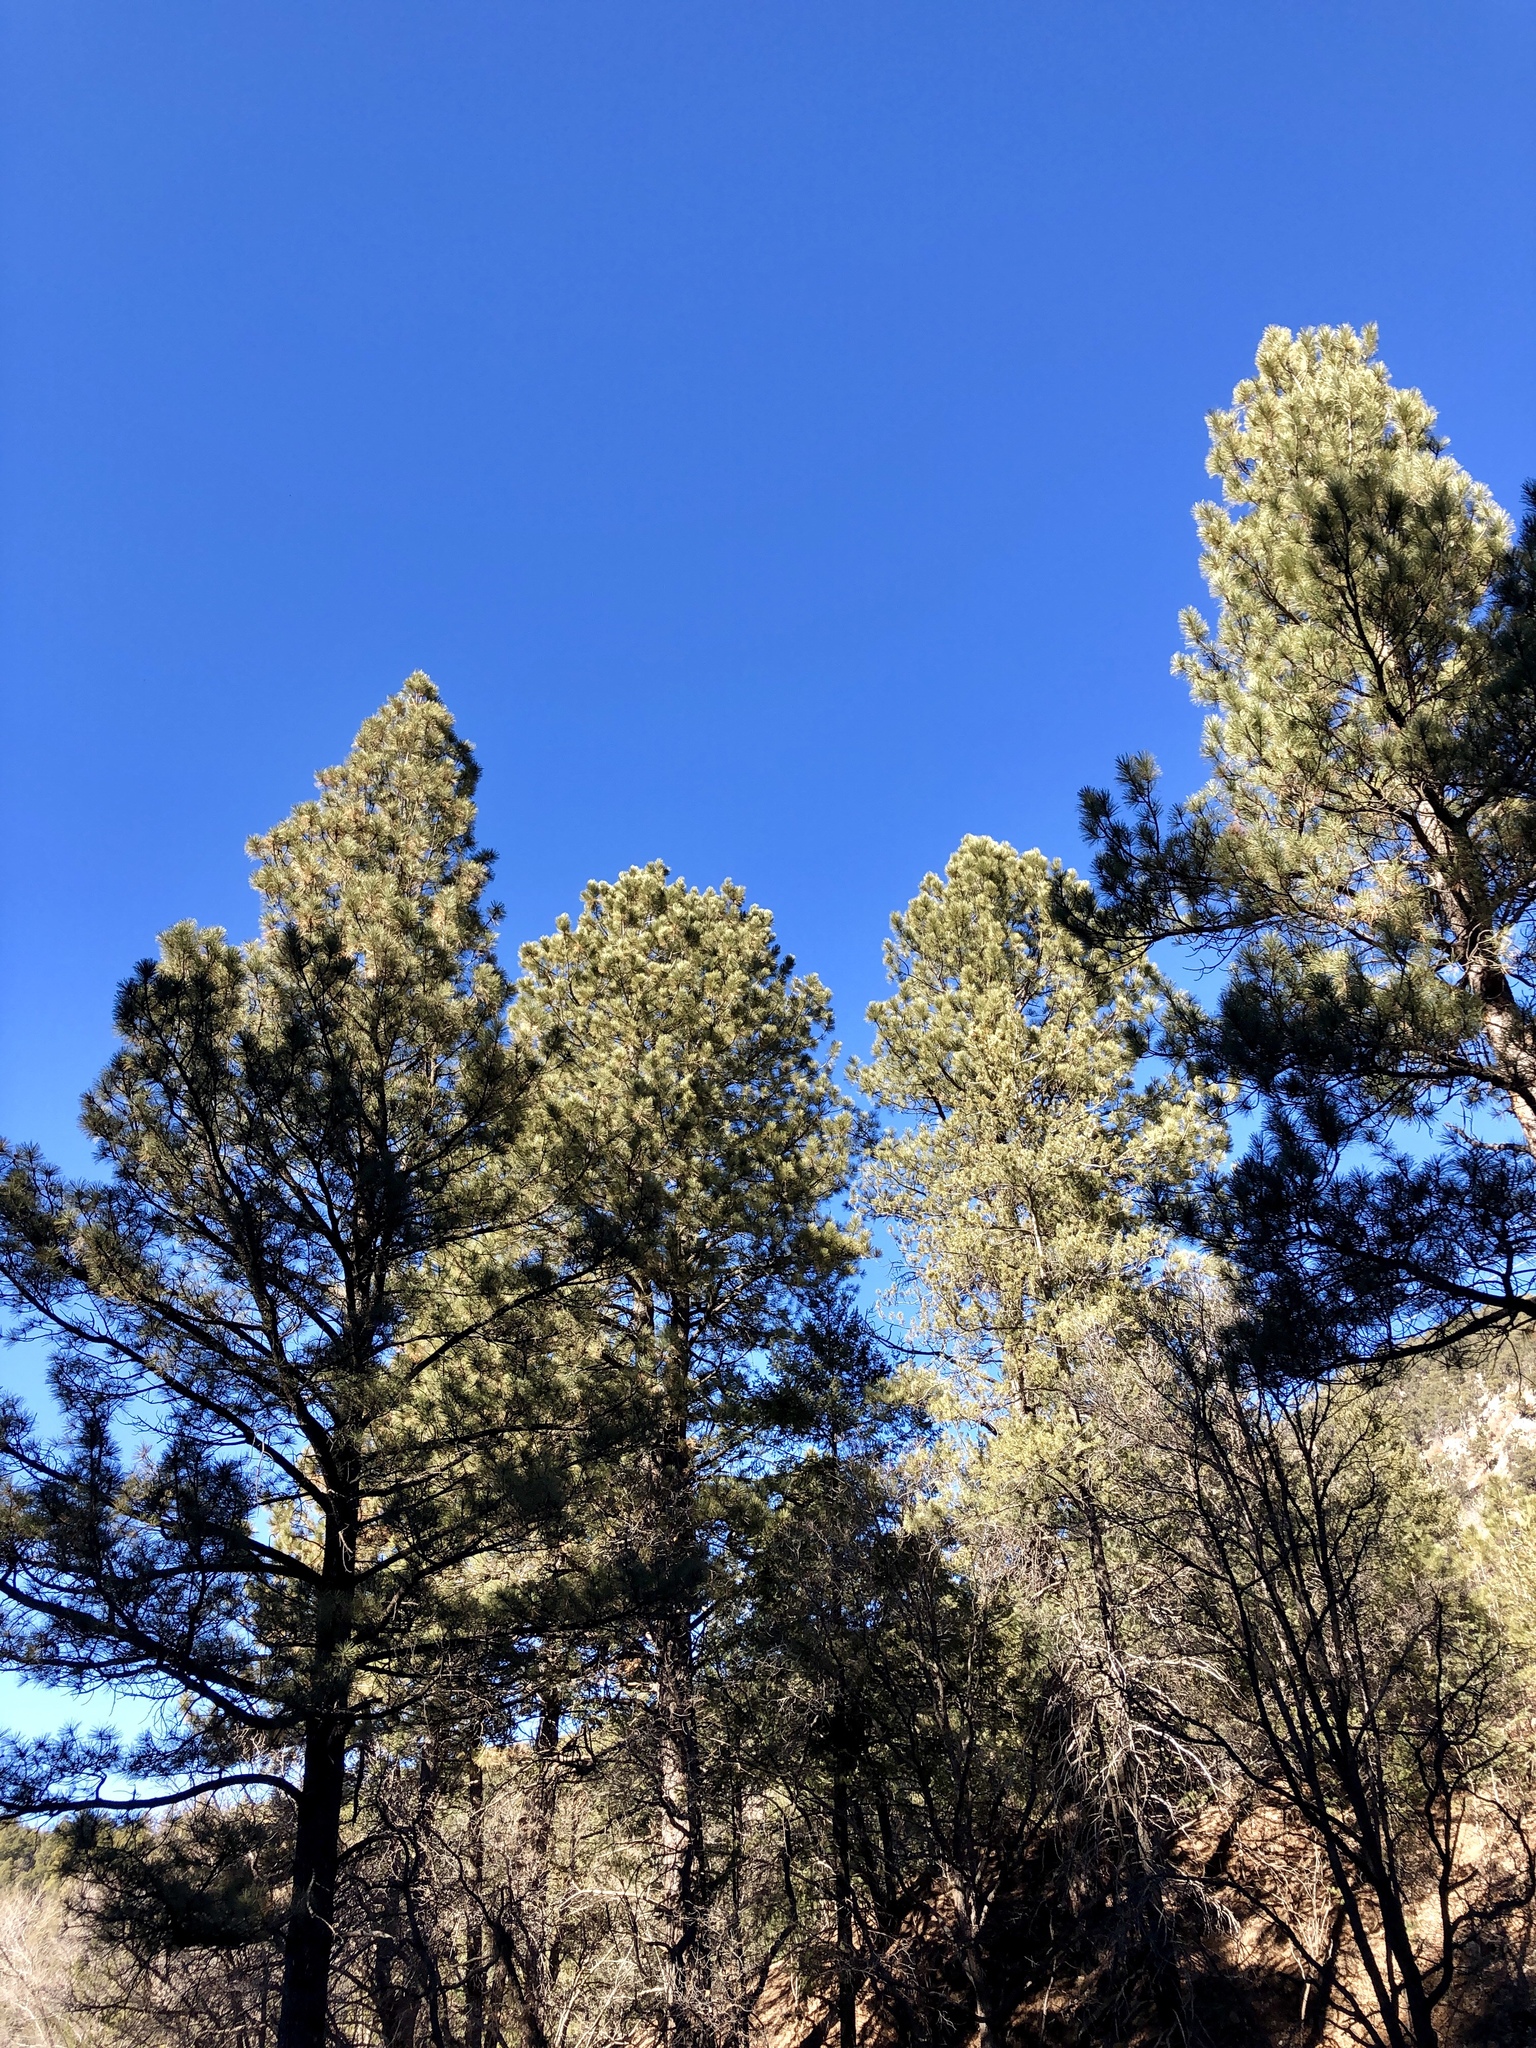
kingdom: Plantae
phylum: Tracheophyta
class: Pinopsida
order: Pinales
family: Pinaceae
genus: Pinus
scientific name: Pinus ponderosa
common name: Western yellow-pine
